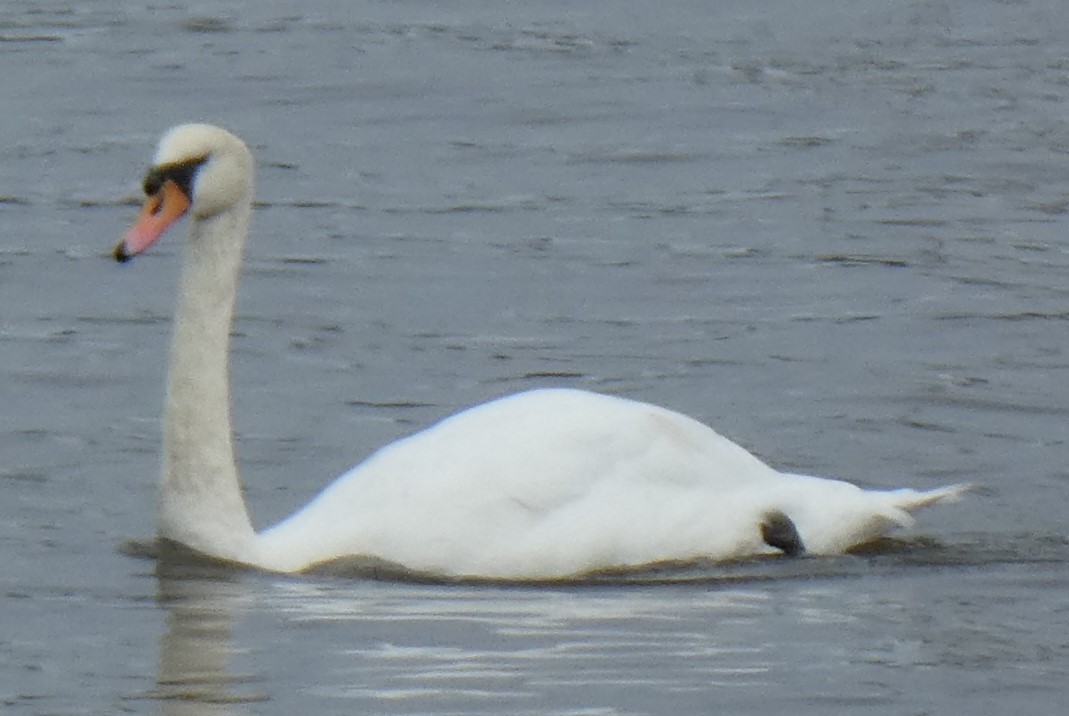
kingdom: Animalia
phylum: Chordata
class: Aves
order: Anseriformes
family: Anatidae
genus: Cygnus
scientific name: Cygnus olor
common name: Mute swan
